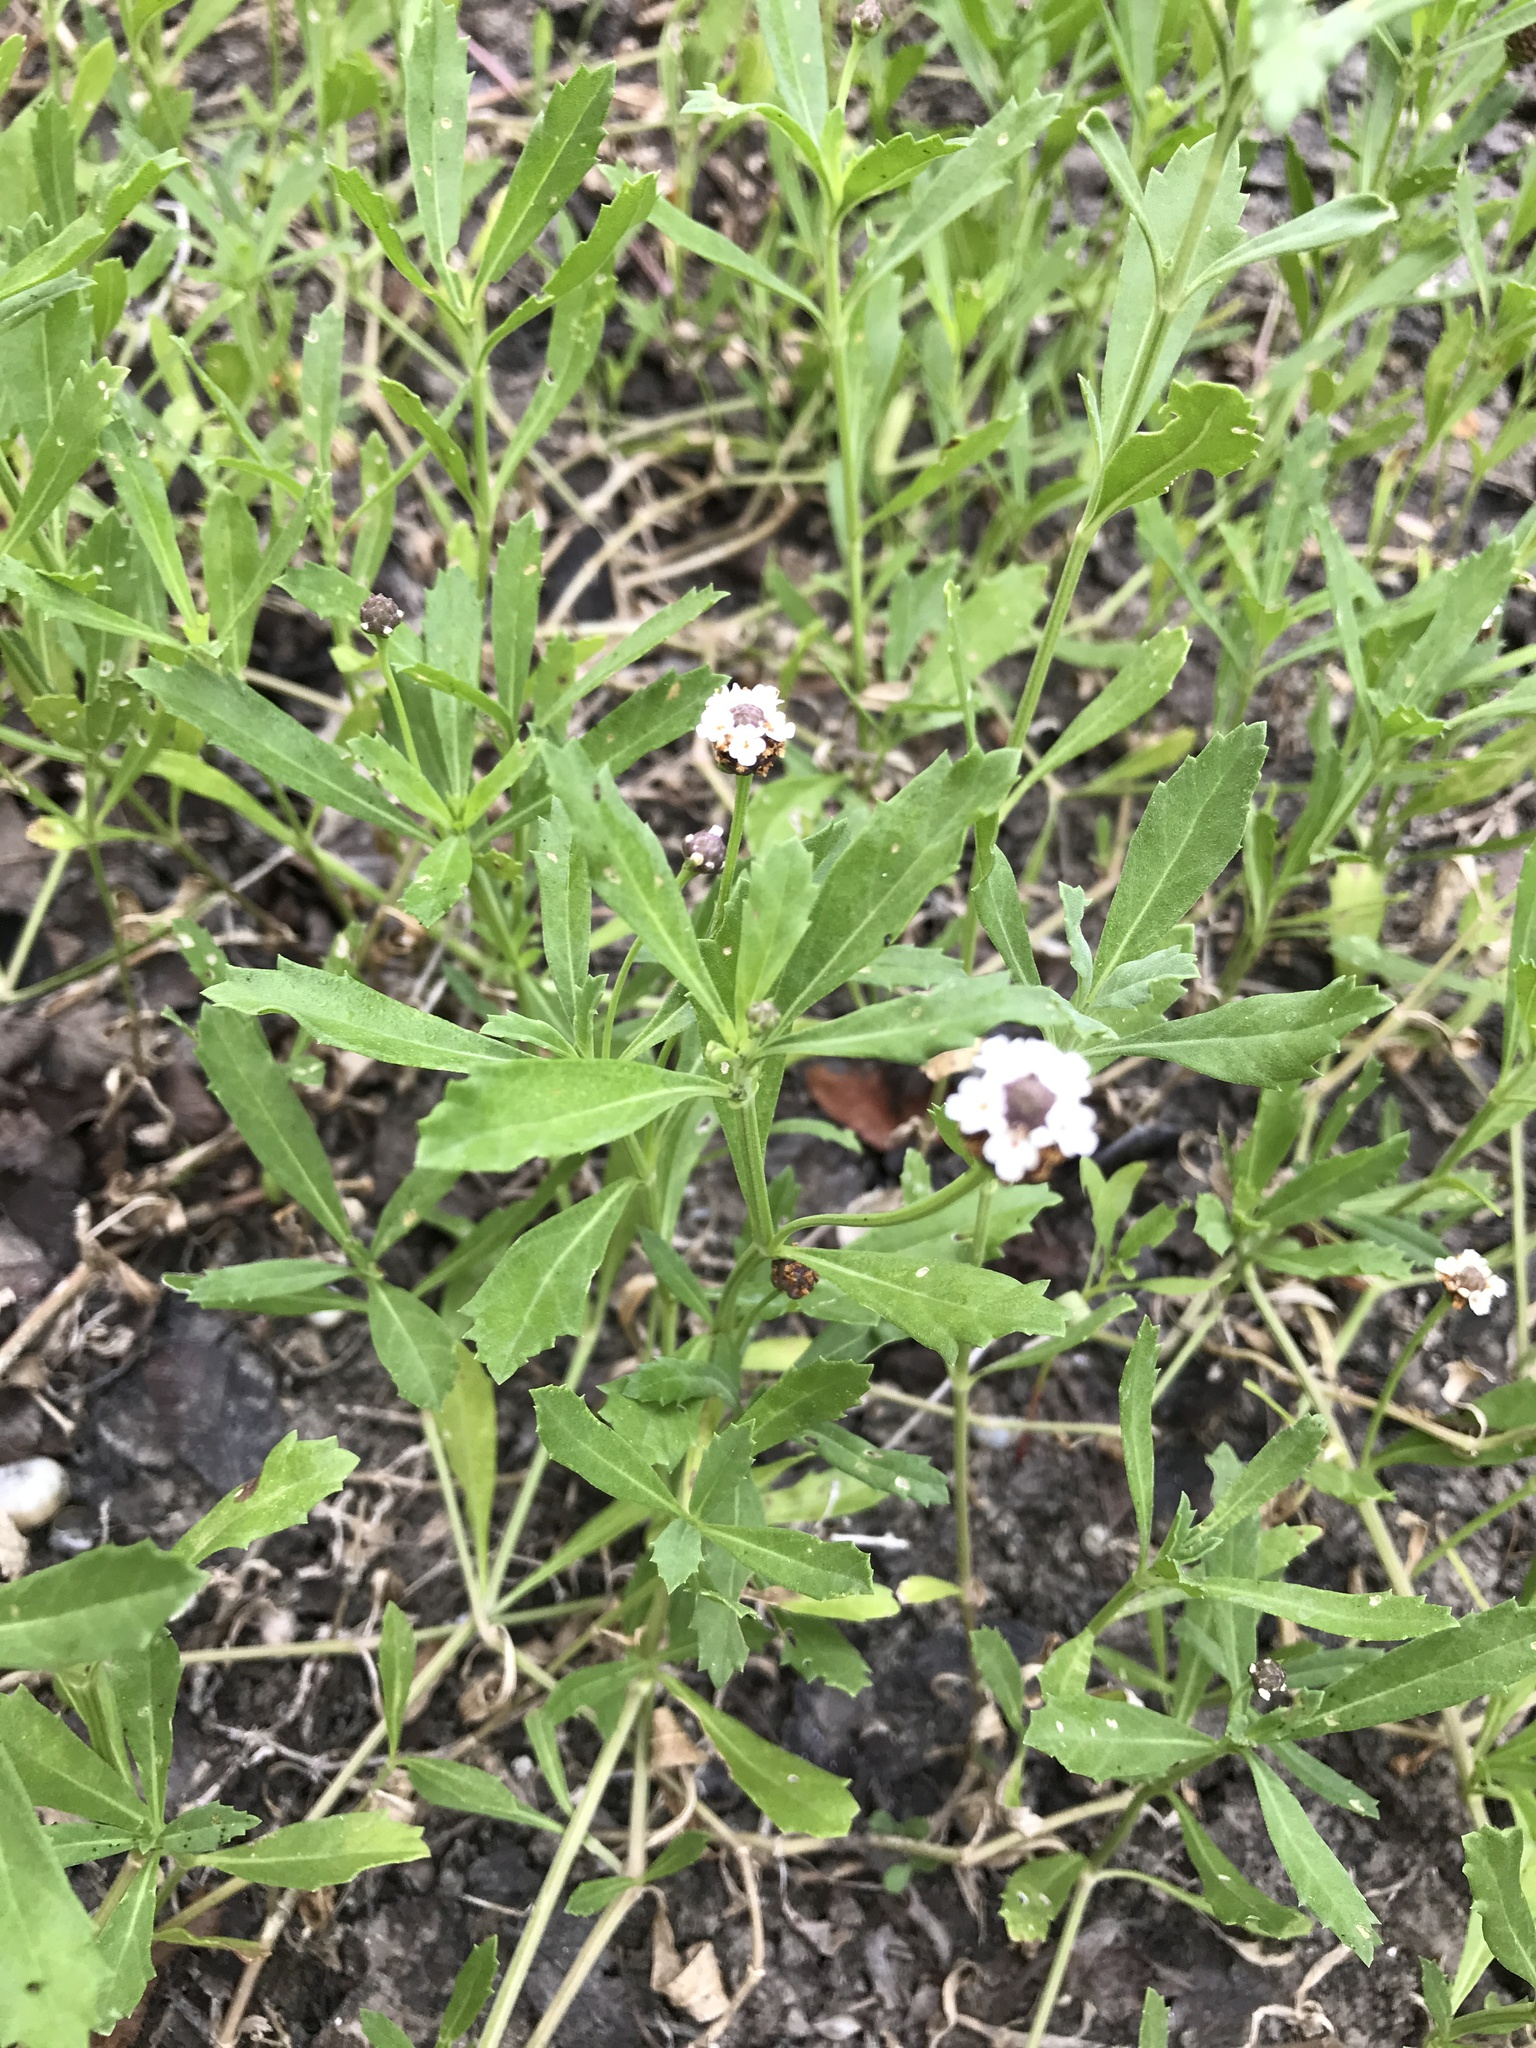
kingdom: Plantae
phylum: Tracheophyta
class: Magnoliopsida
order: Lamiales
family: Verbenaceae
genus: Phyla
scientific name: Phyla nodiflora
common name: Frogfruit
